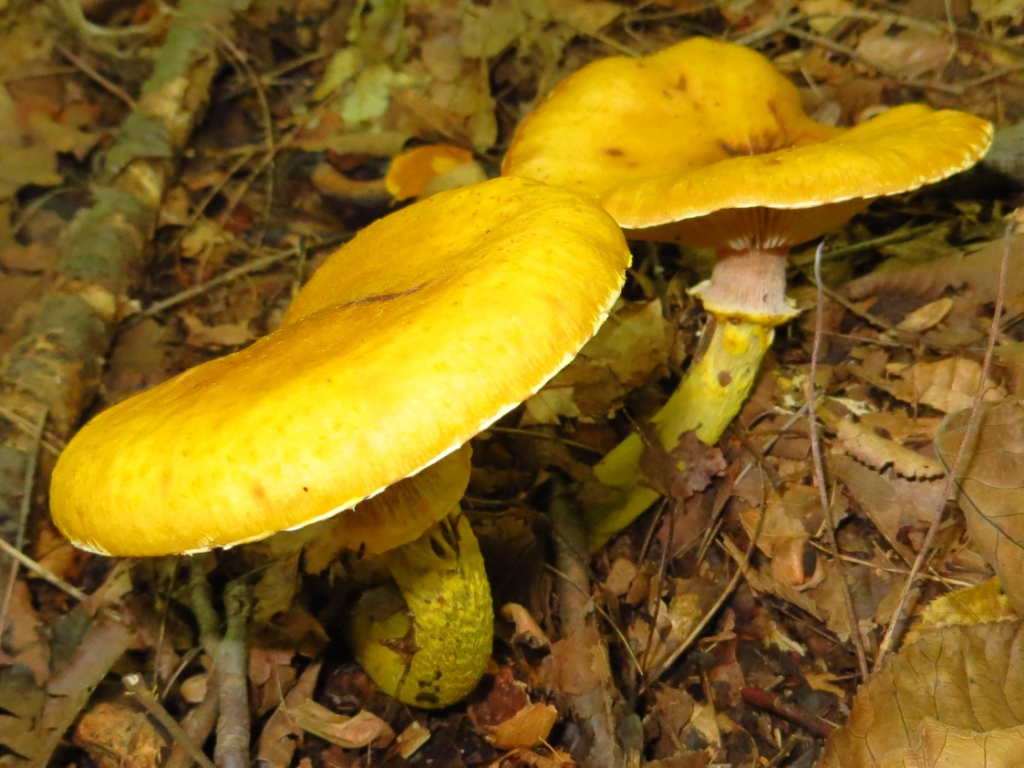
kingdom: Fungi
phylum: Basidiomycota
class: Agaricomycetes
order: Agaricales
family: Physalacriaceae
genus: Armillaria
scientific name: Armillaria mellea
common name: Honey fungus
